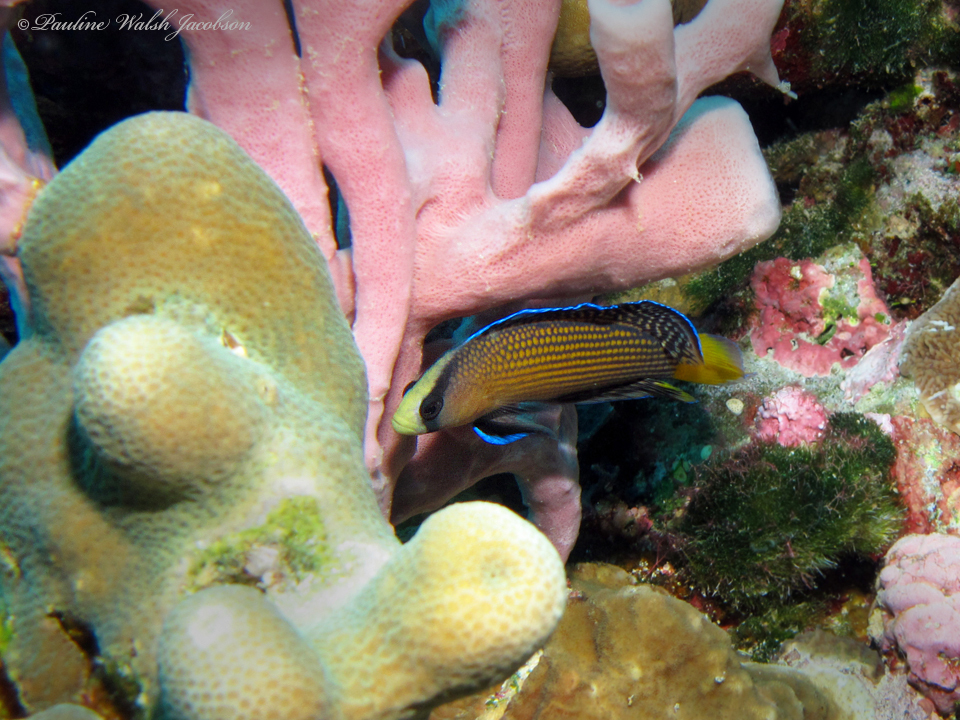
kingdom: Animalia
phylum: Chordata
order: Perciformes
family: Pseudochromidae
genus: Manonichthys
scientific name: Manonichthys splendens
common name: Splendid dottyback
